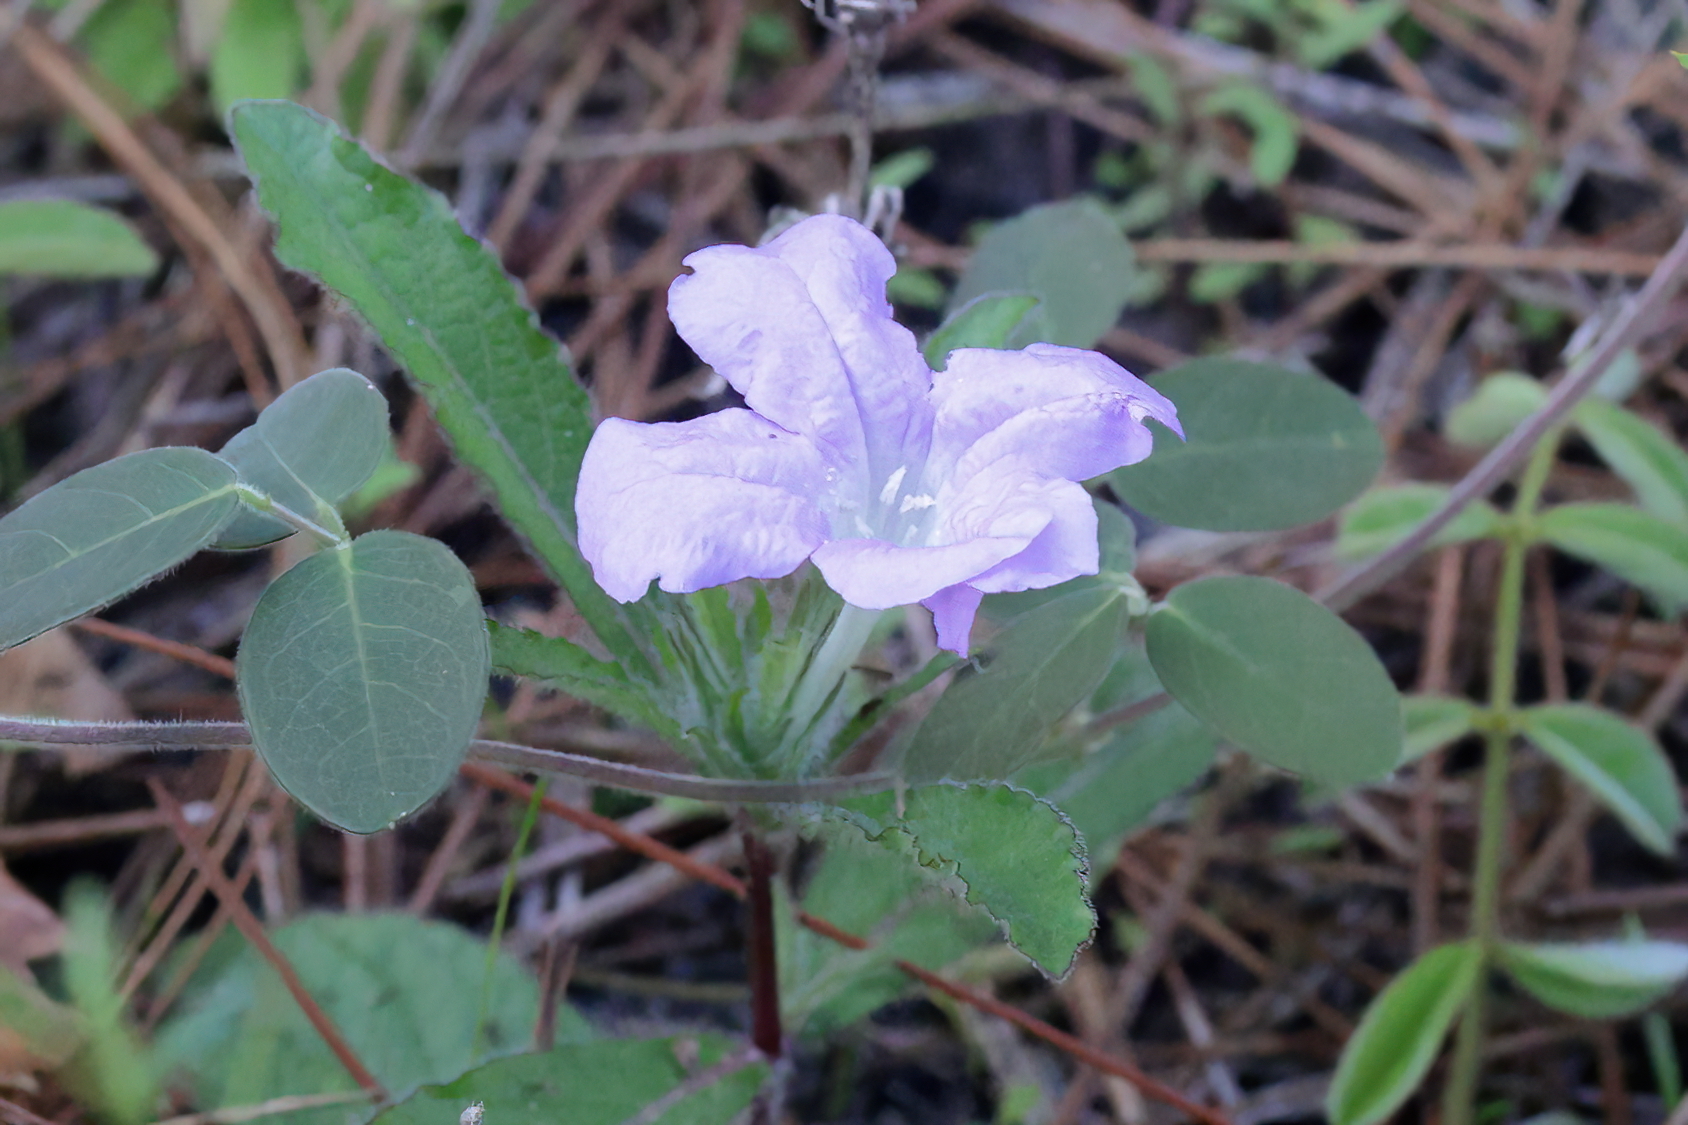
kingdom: Plantae
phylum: Tracheophyta
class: Magnoliopsida
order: Lamiales
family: Acanthaceae
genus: Ruellia
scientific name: Ruellia caroliniensis
